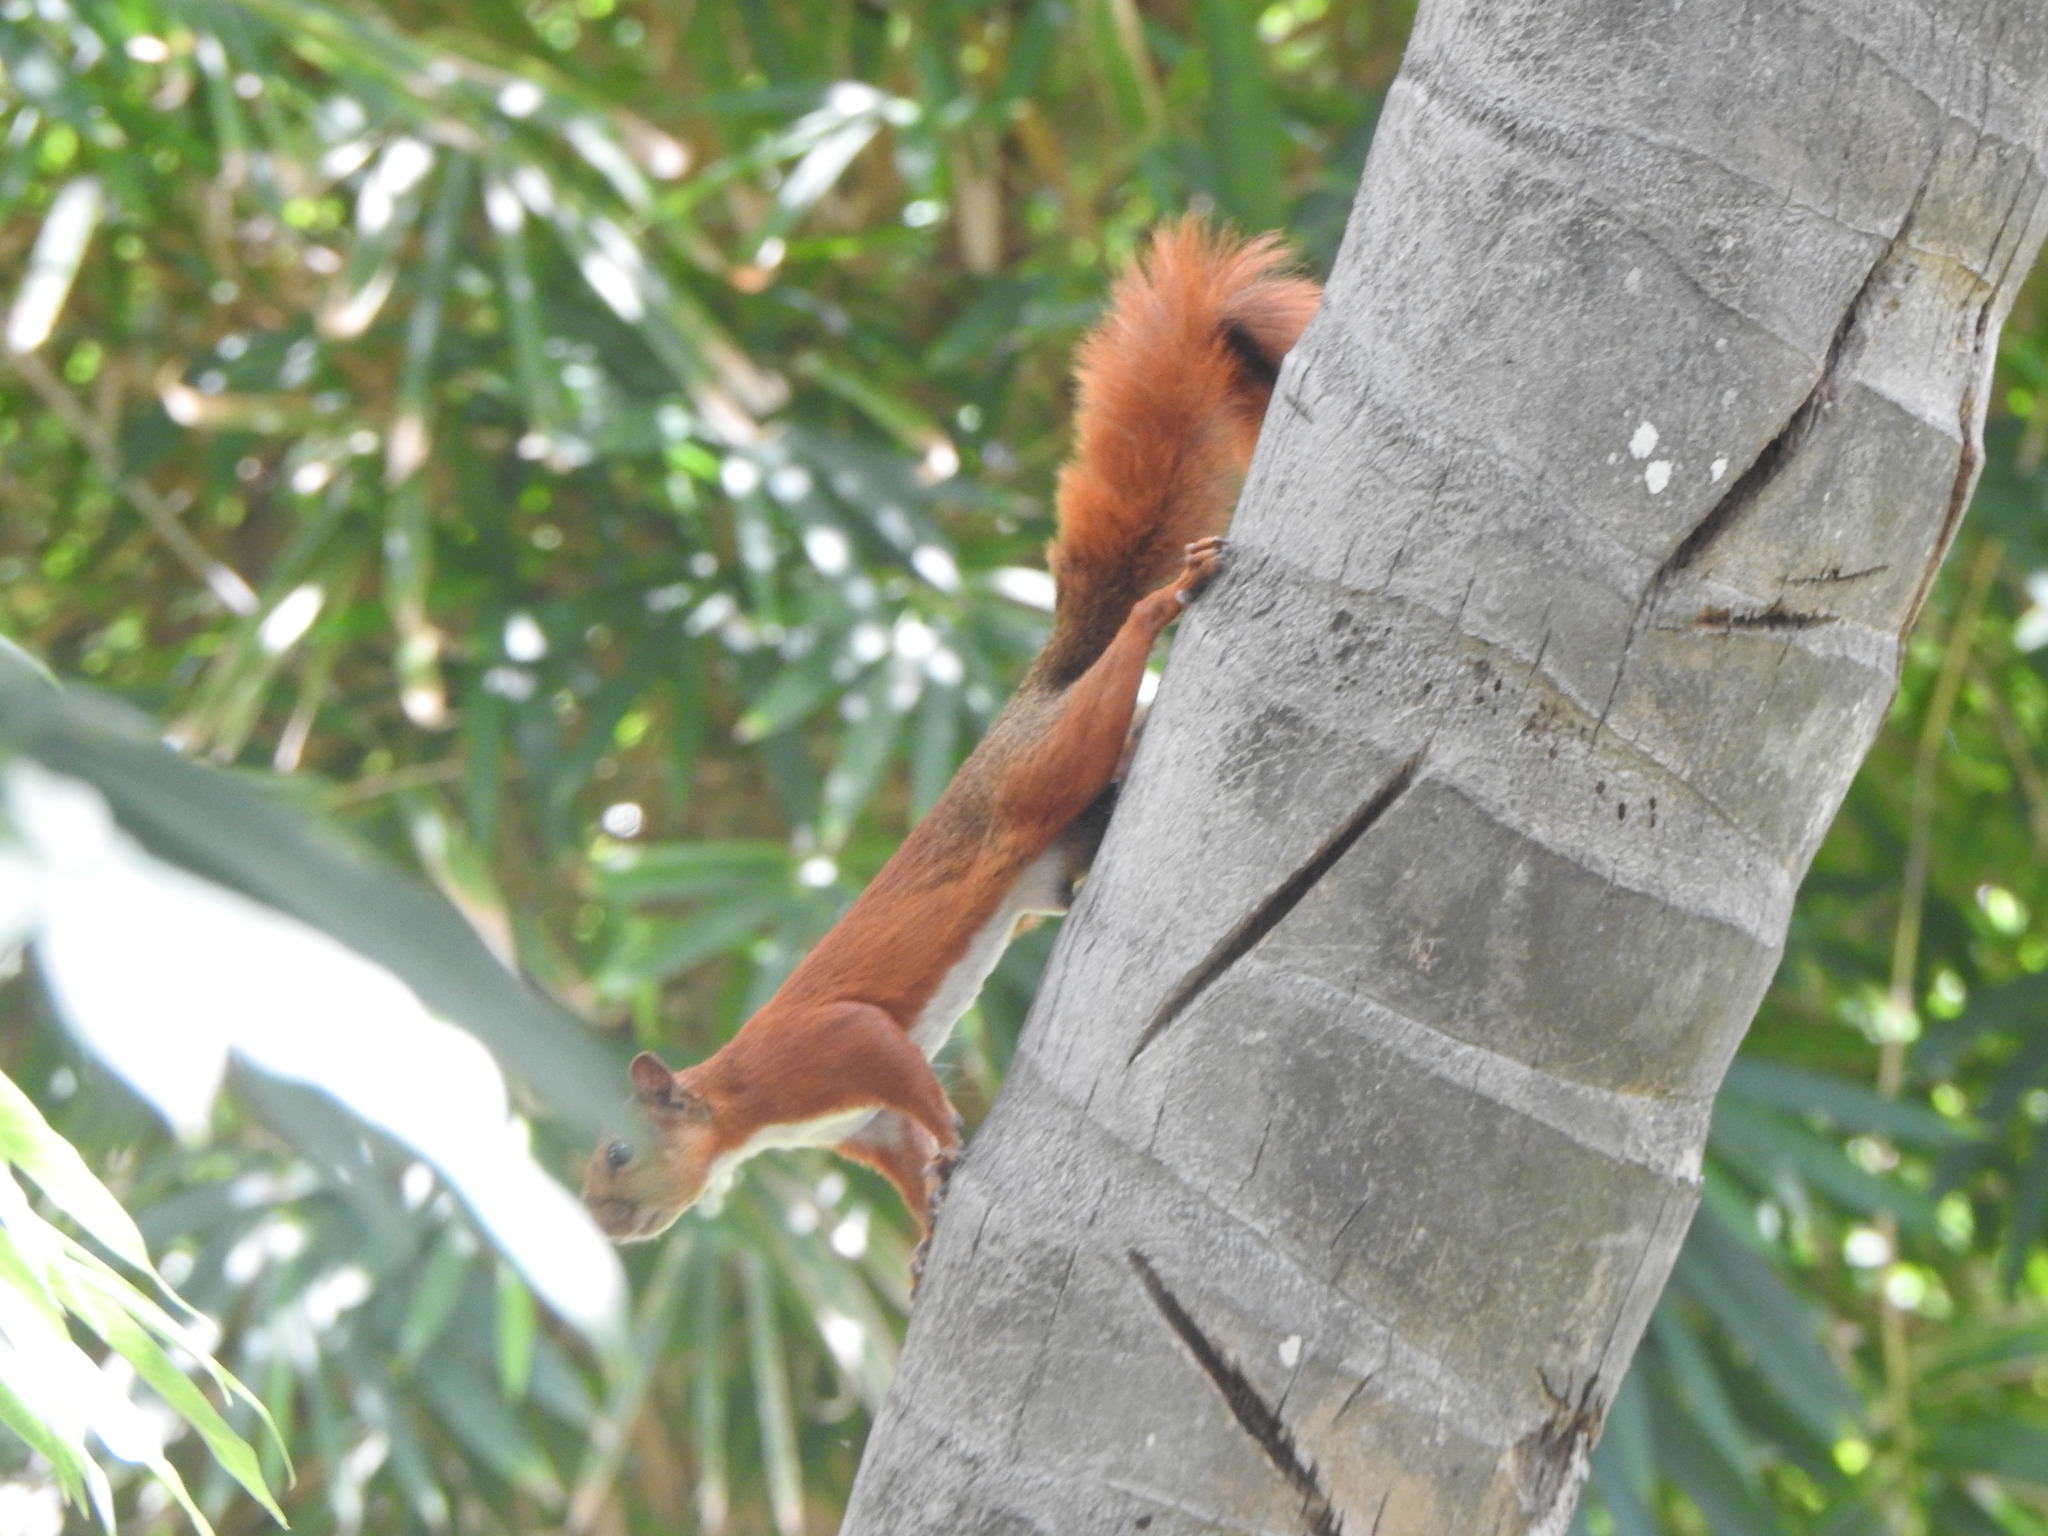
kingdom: Animalia
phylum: Chordata
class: Mammalia
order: Rodentia
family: Sciuridae
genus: Sciurus
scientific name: Sciurus granatensis
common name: Red-tailed squirrel
